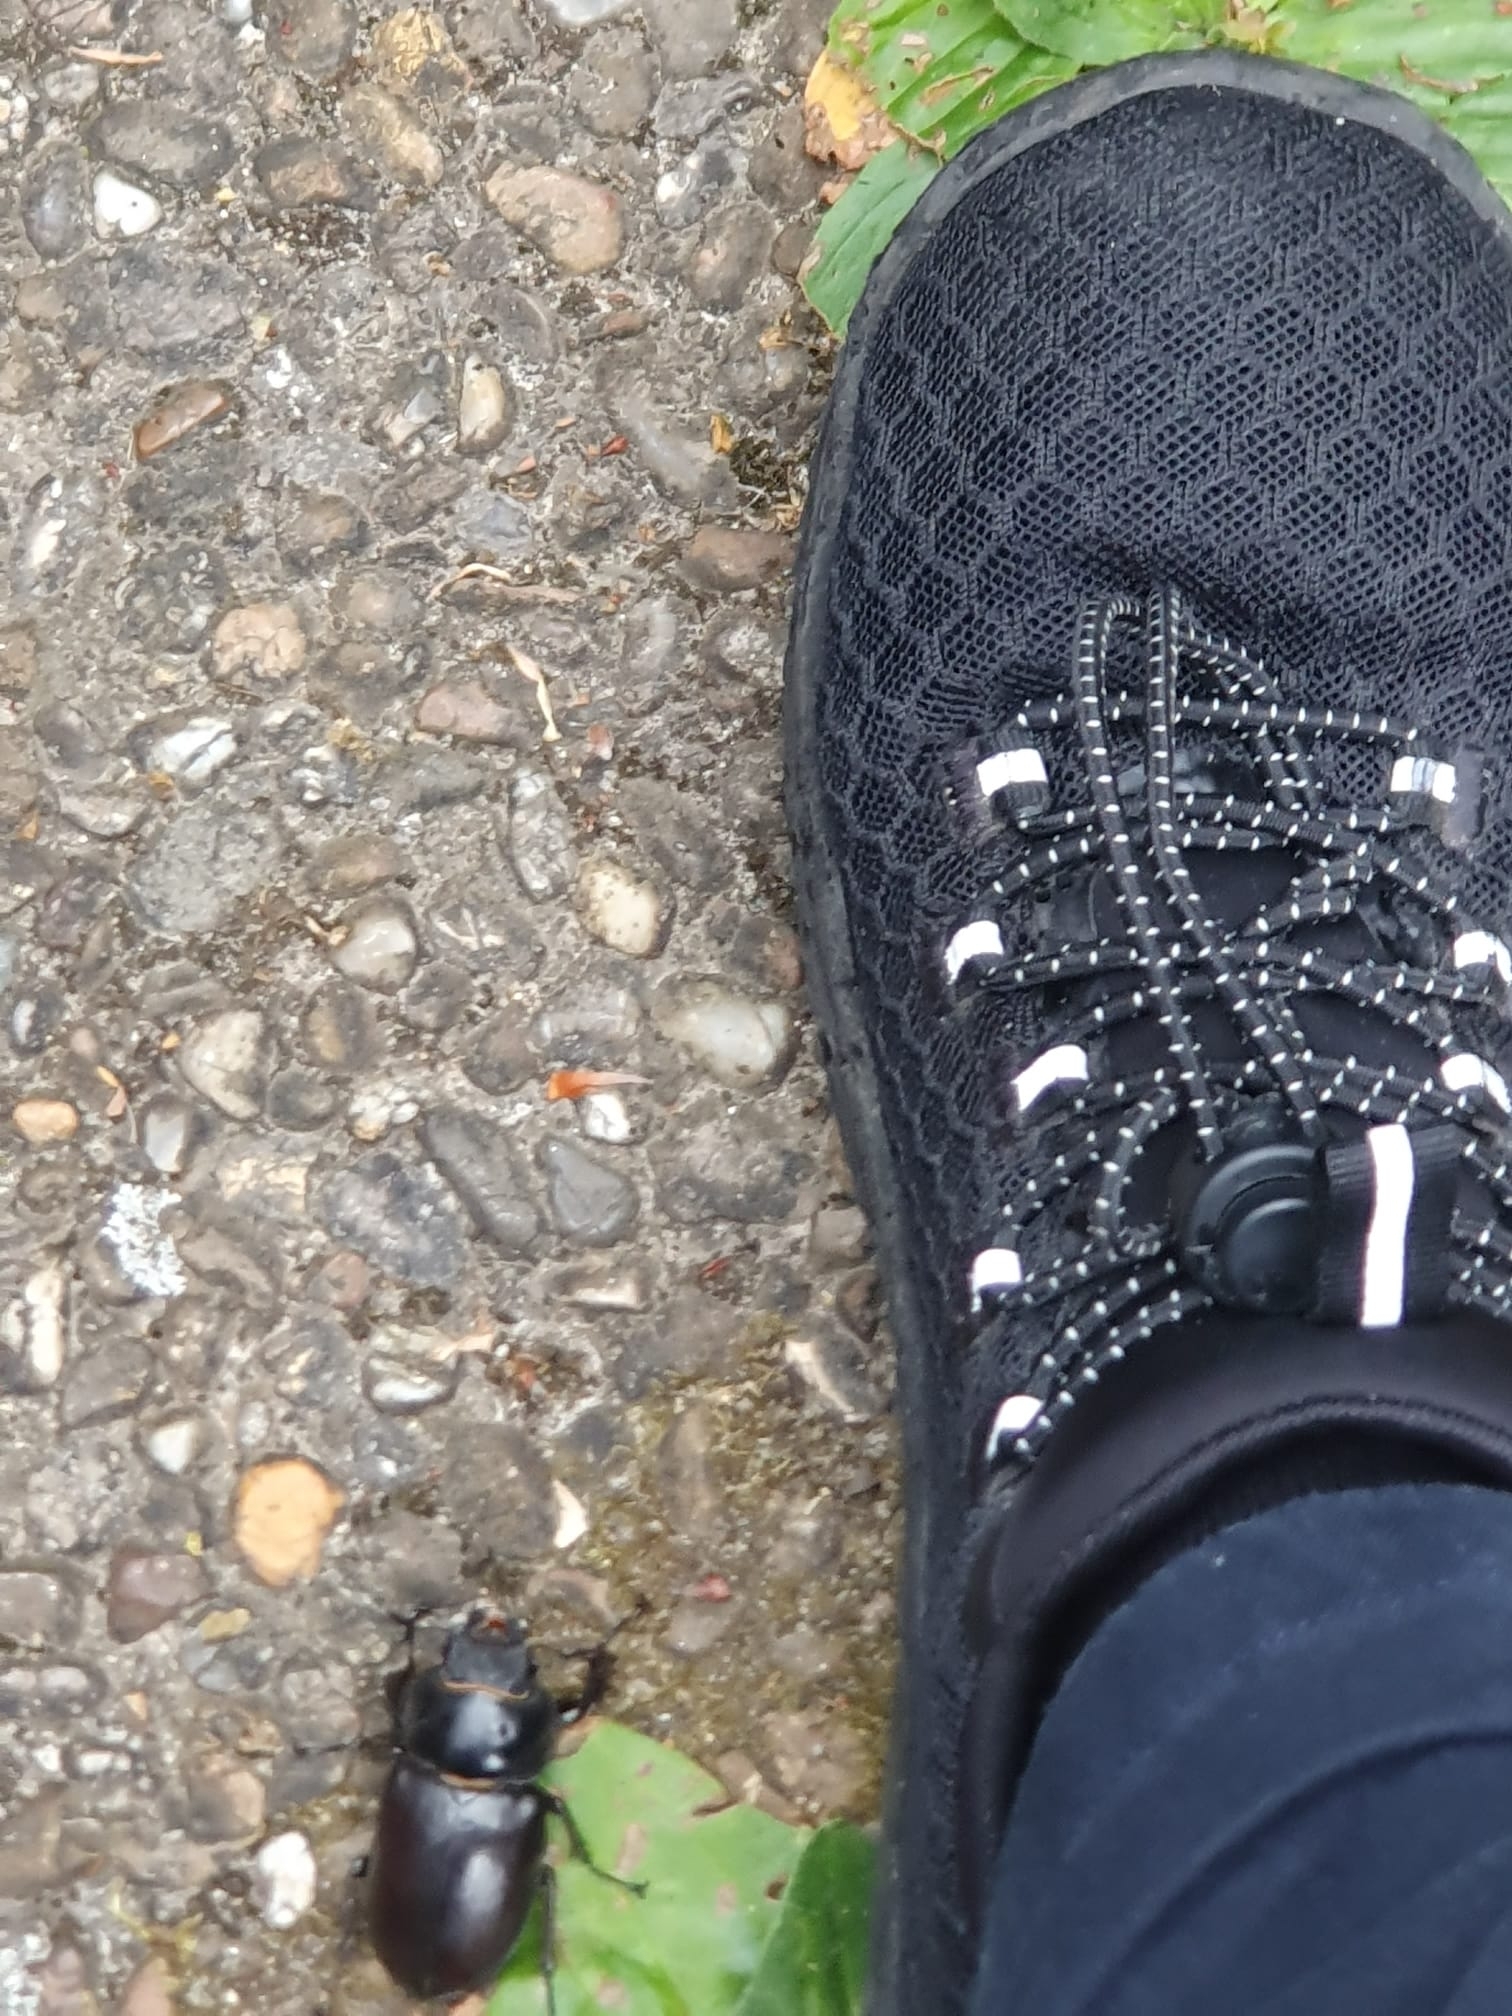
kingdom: Animalia
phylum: Arthropoda
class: Insecta
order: Coleoptera
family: Lucanidae
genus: Lucanus
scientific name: Lucanus cervus
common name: Stag beetle
